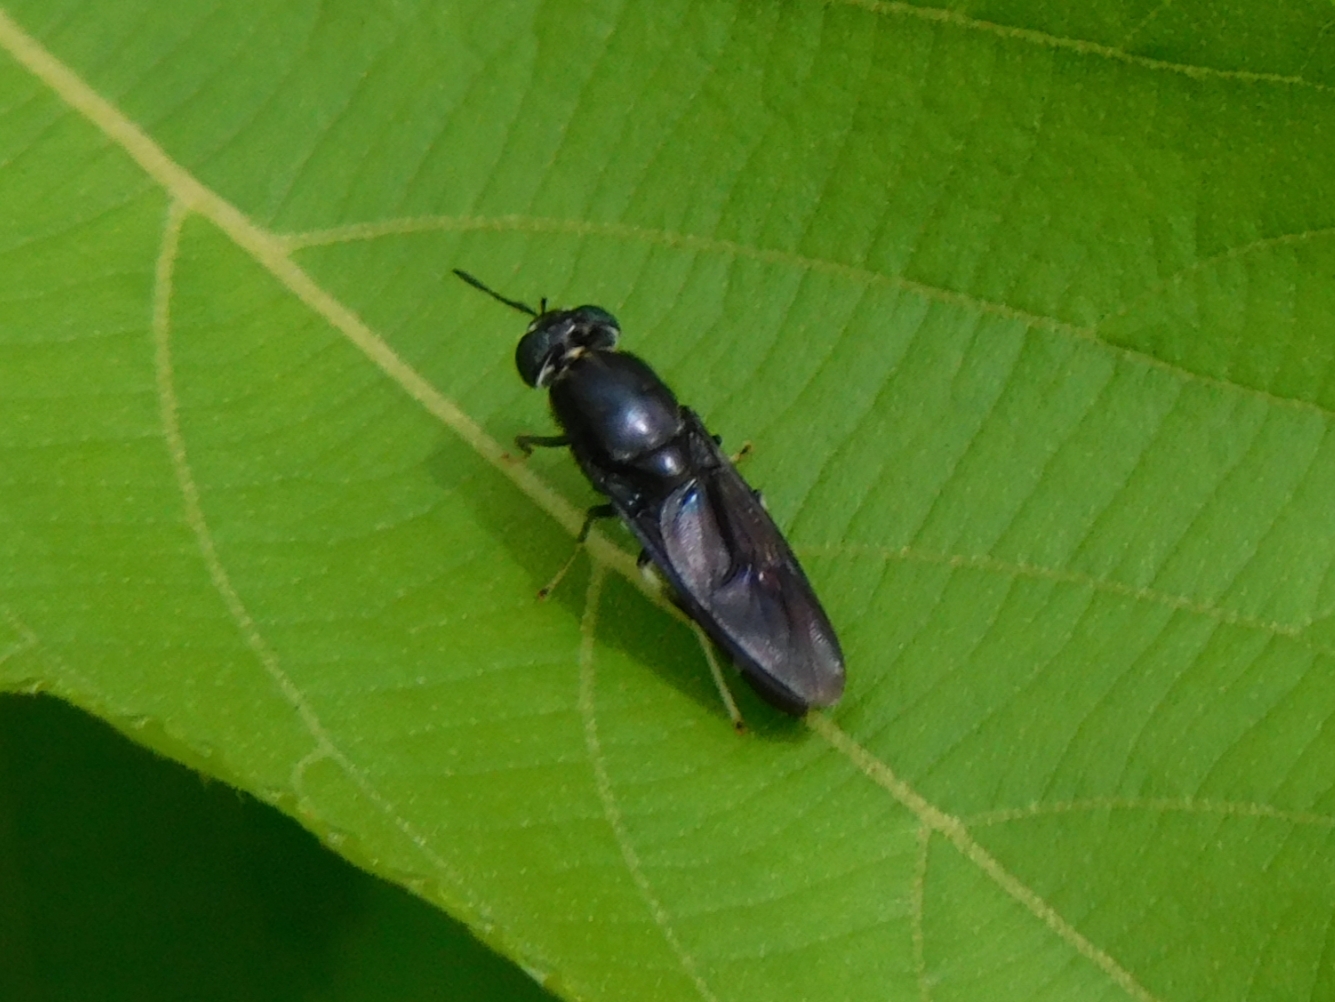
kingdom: Animalia
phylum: Arthropoda
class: Insecta
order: Diptera
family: Stratiomyidae
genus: Hermetia
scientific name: Hermetia illucens
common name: Black soldier fly
